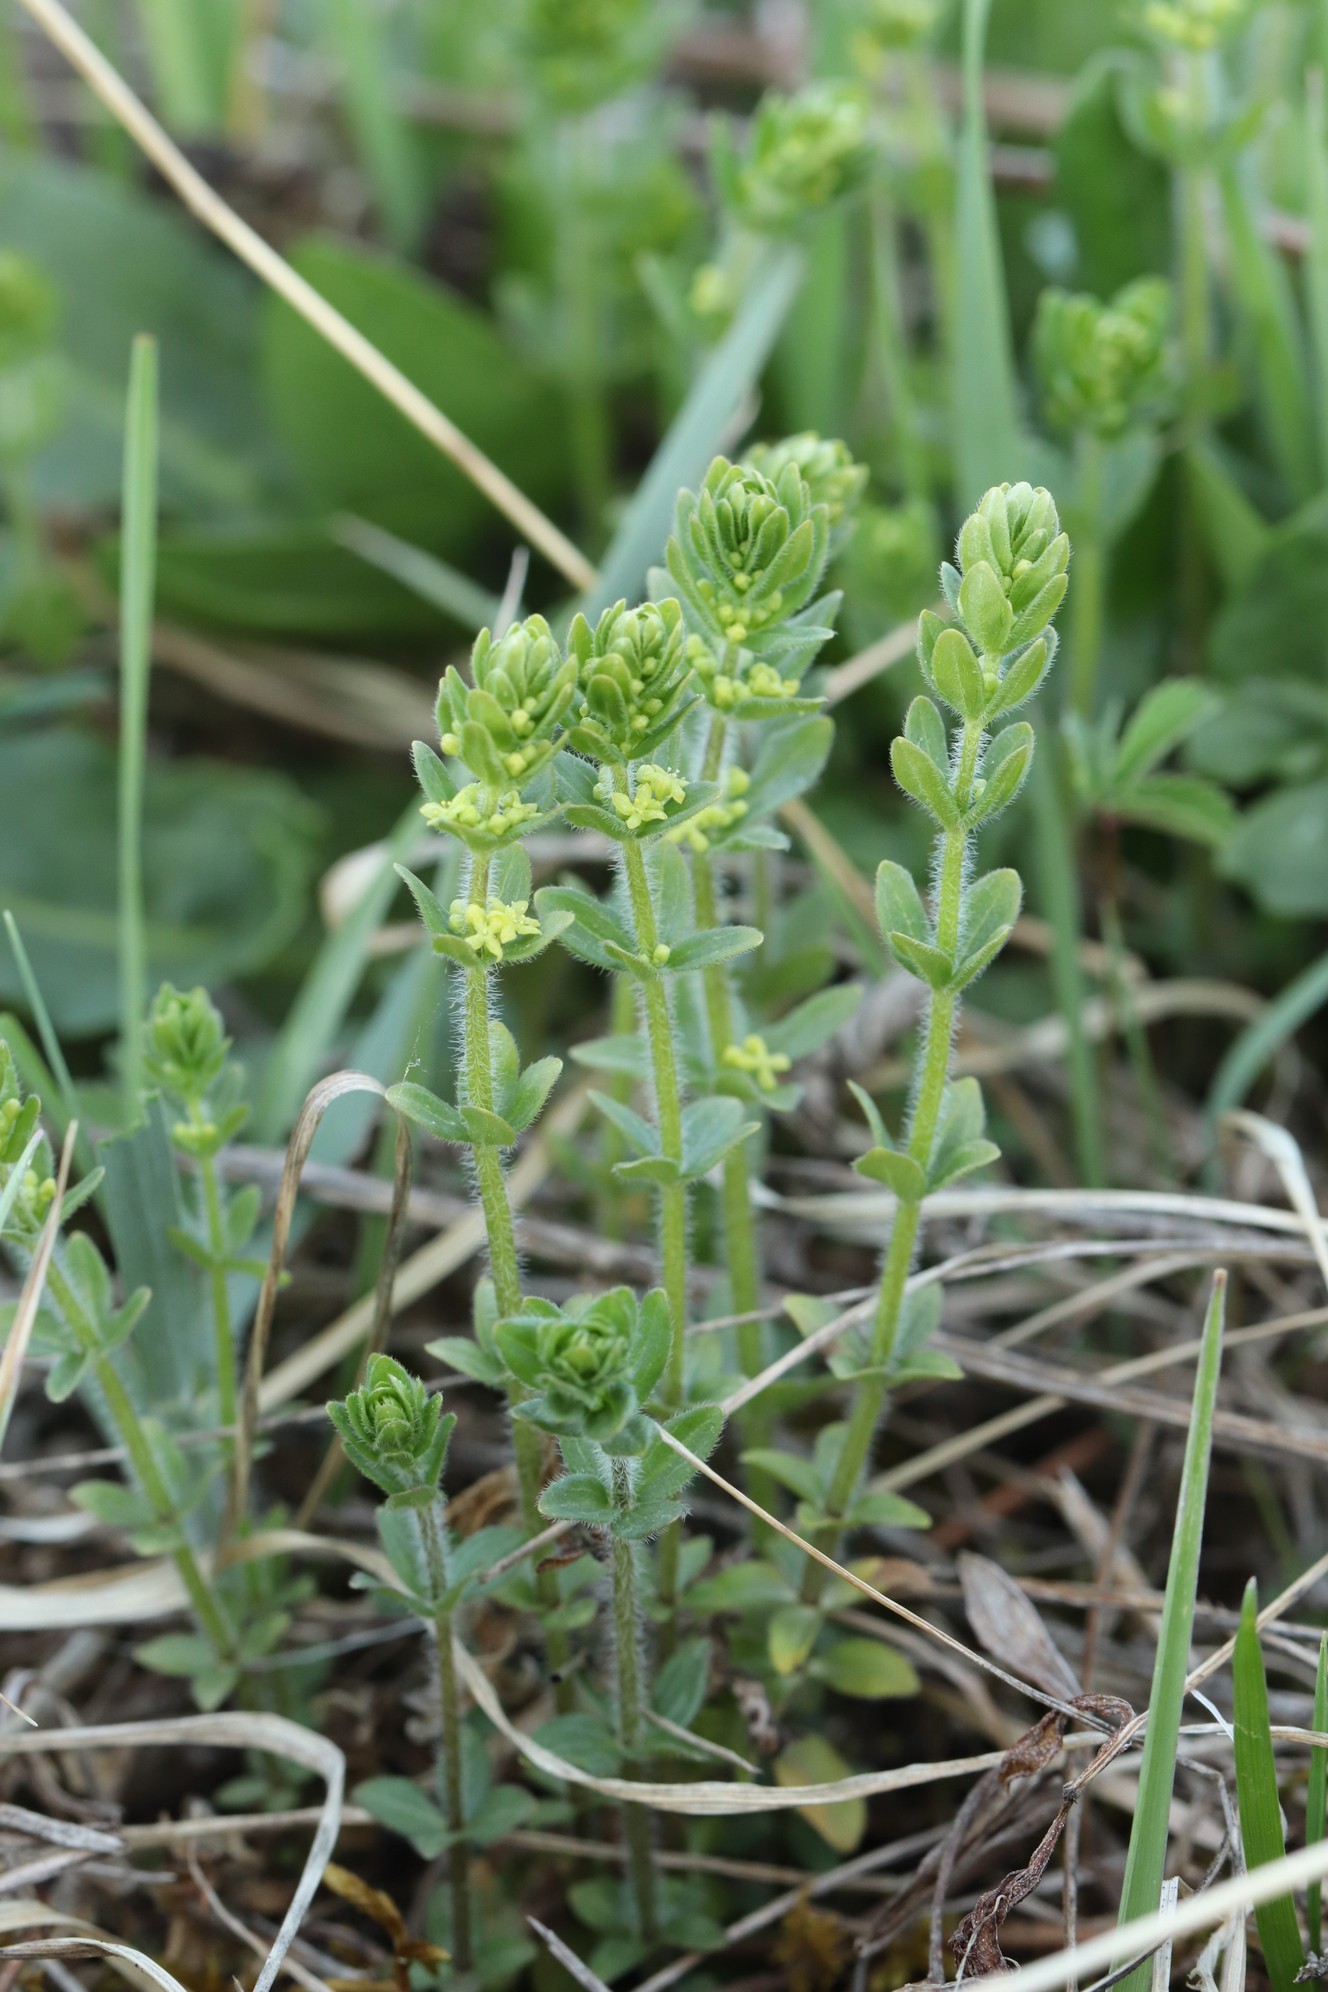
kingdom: Plantae
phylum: Tracheophyta
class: Magnoliopsida
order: Gentianales
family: Rubiaceae
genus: Cruciata
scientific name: Cruciata glabra
